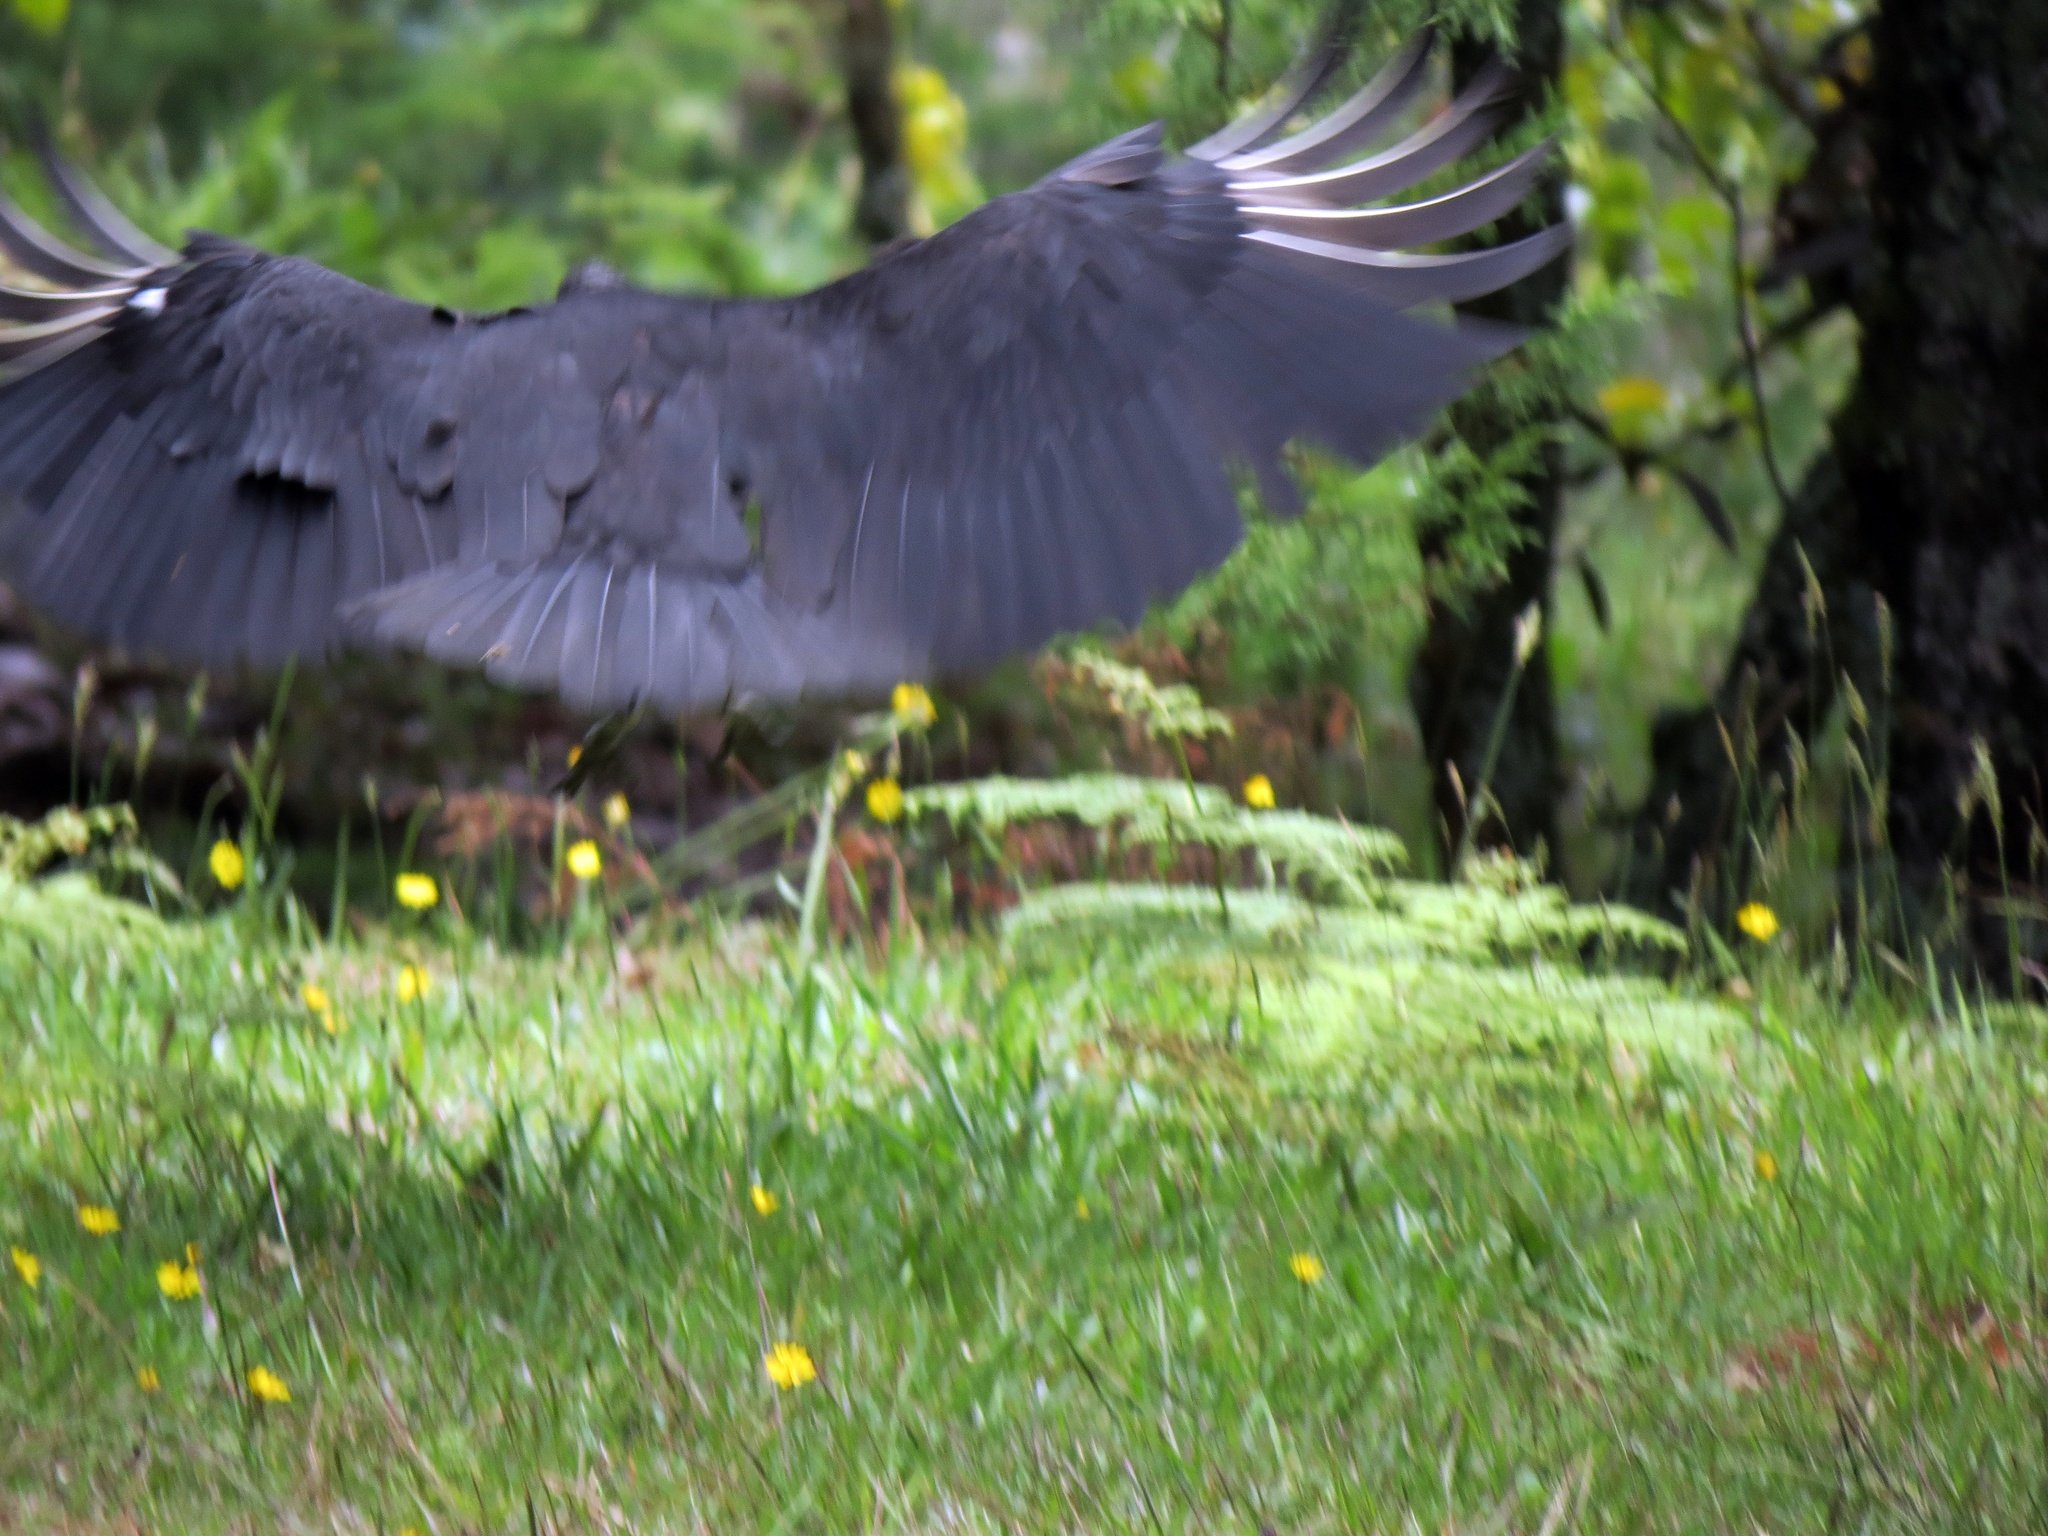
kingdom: Animalia
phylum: Chordata
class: Aves
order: Accipitriformes
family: Cathartidae
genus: Coragyps
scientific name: Coragyps atratus
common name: Black vulture
